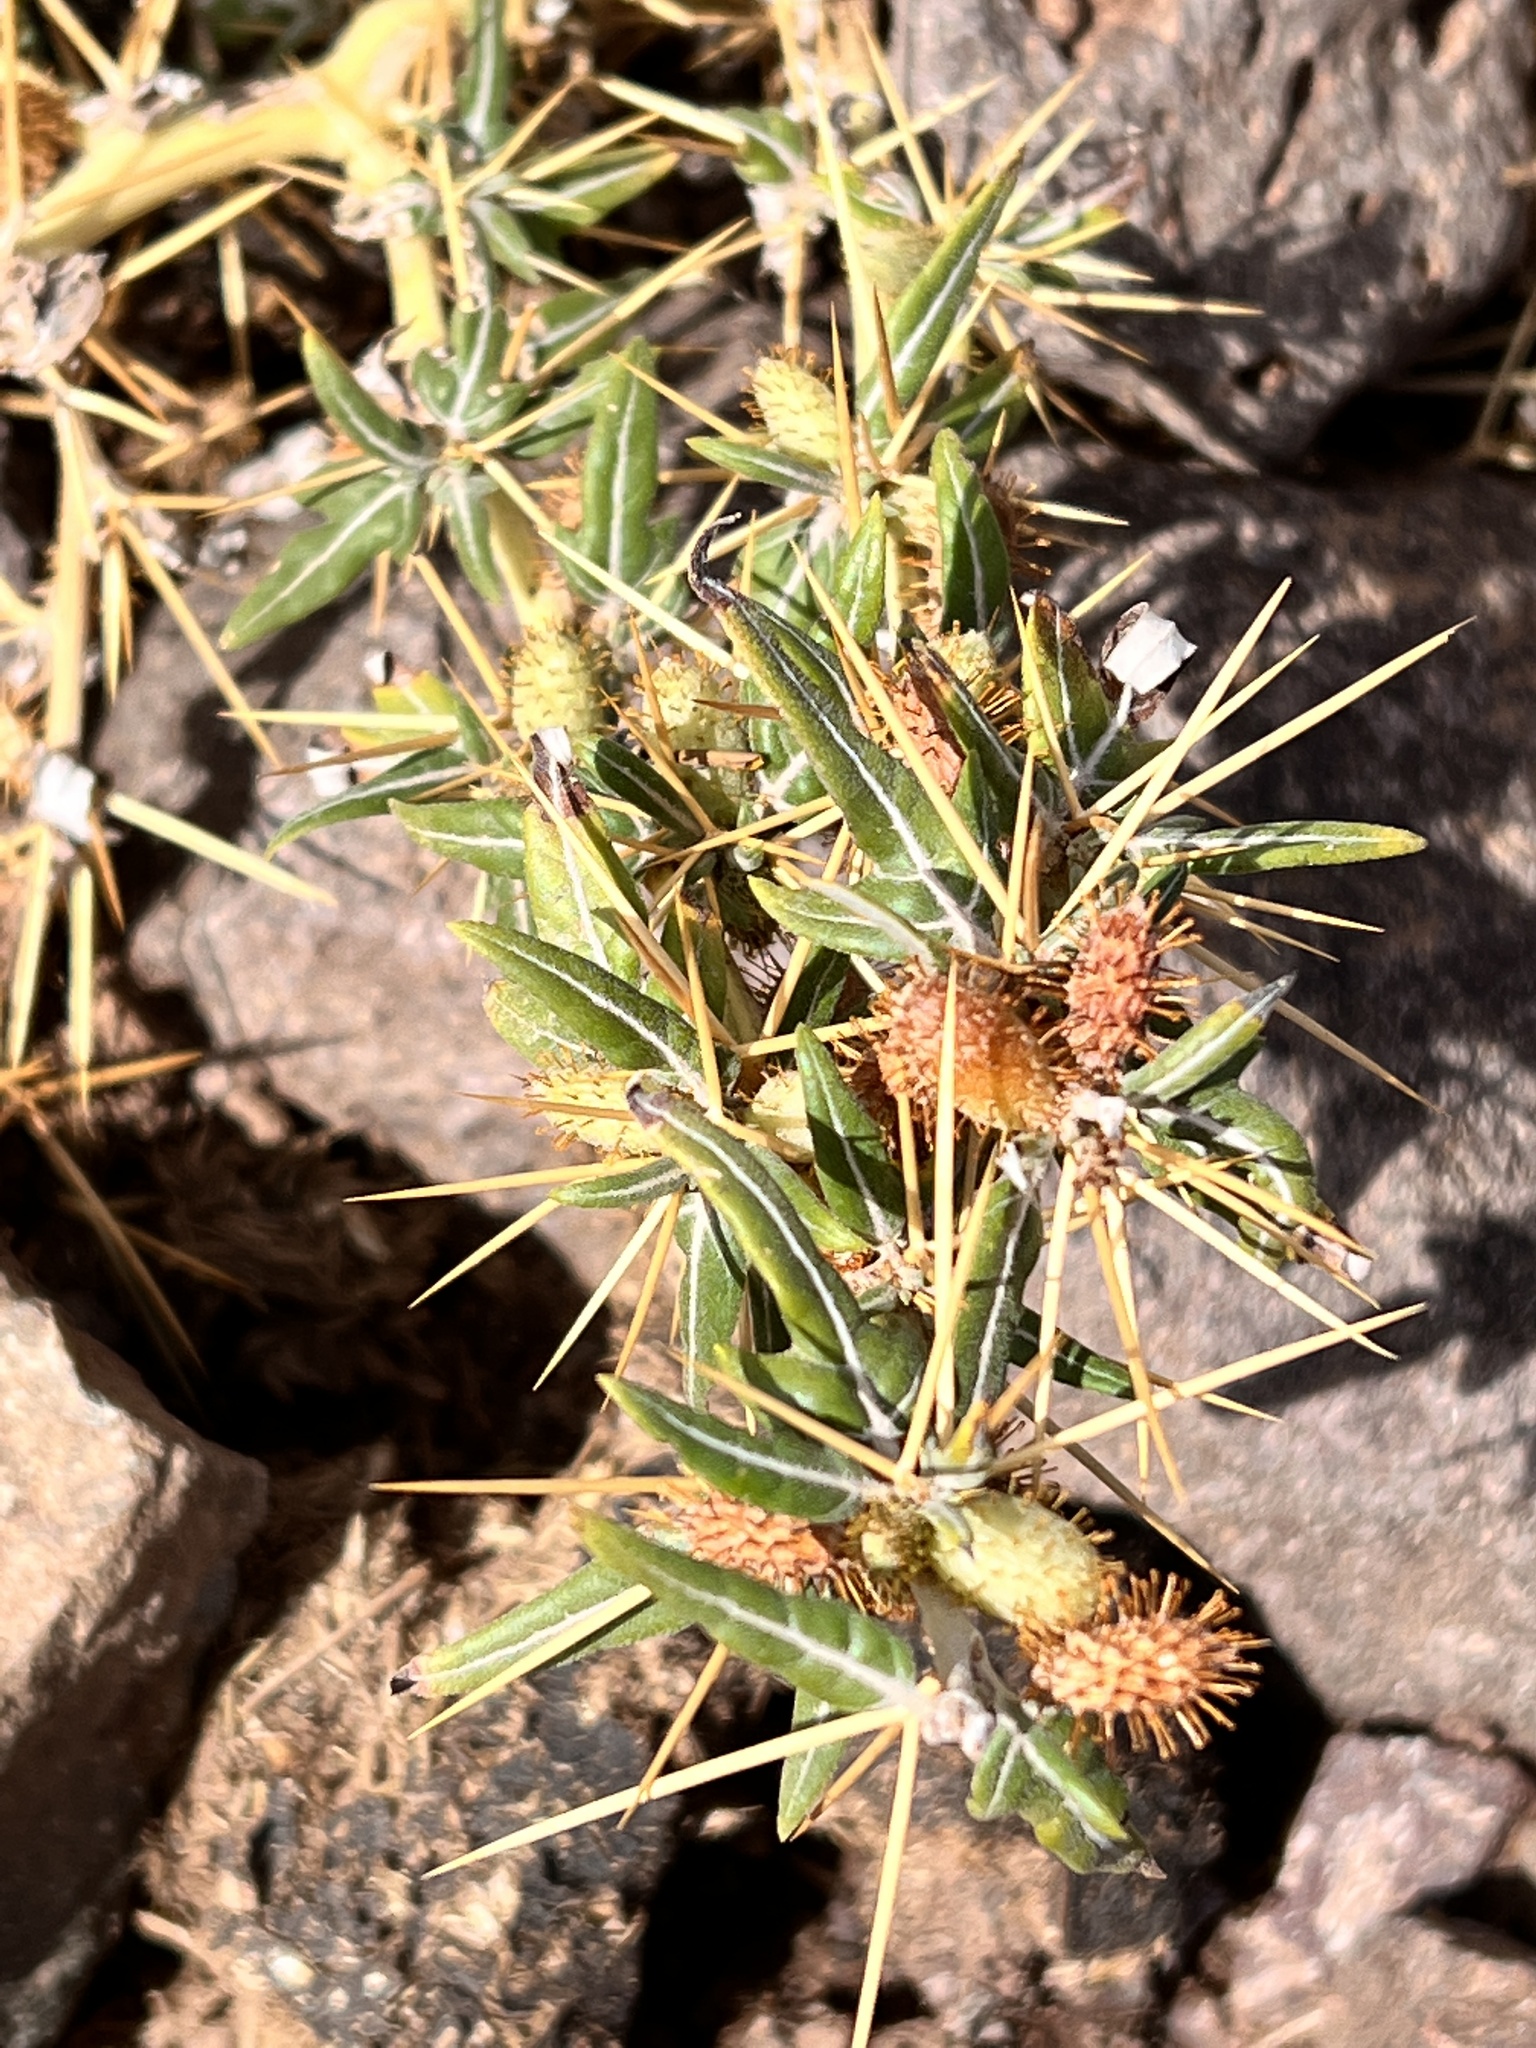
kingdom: Plantae
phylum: Tracheophyta
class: Magnoliopsida
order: Asterales
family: Asteraceae
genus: Xanthium
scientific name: Xanthium spinosum
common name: Spiny cocklebur
